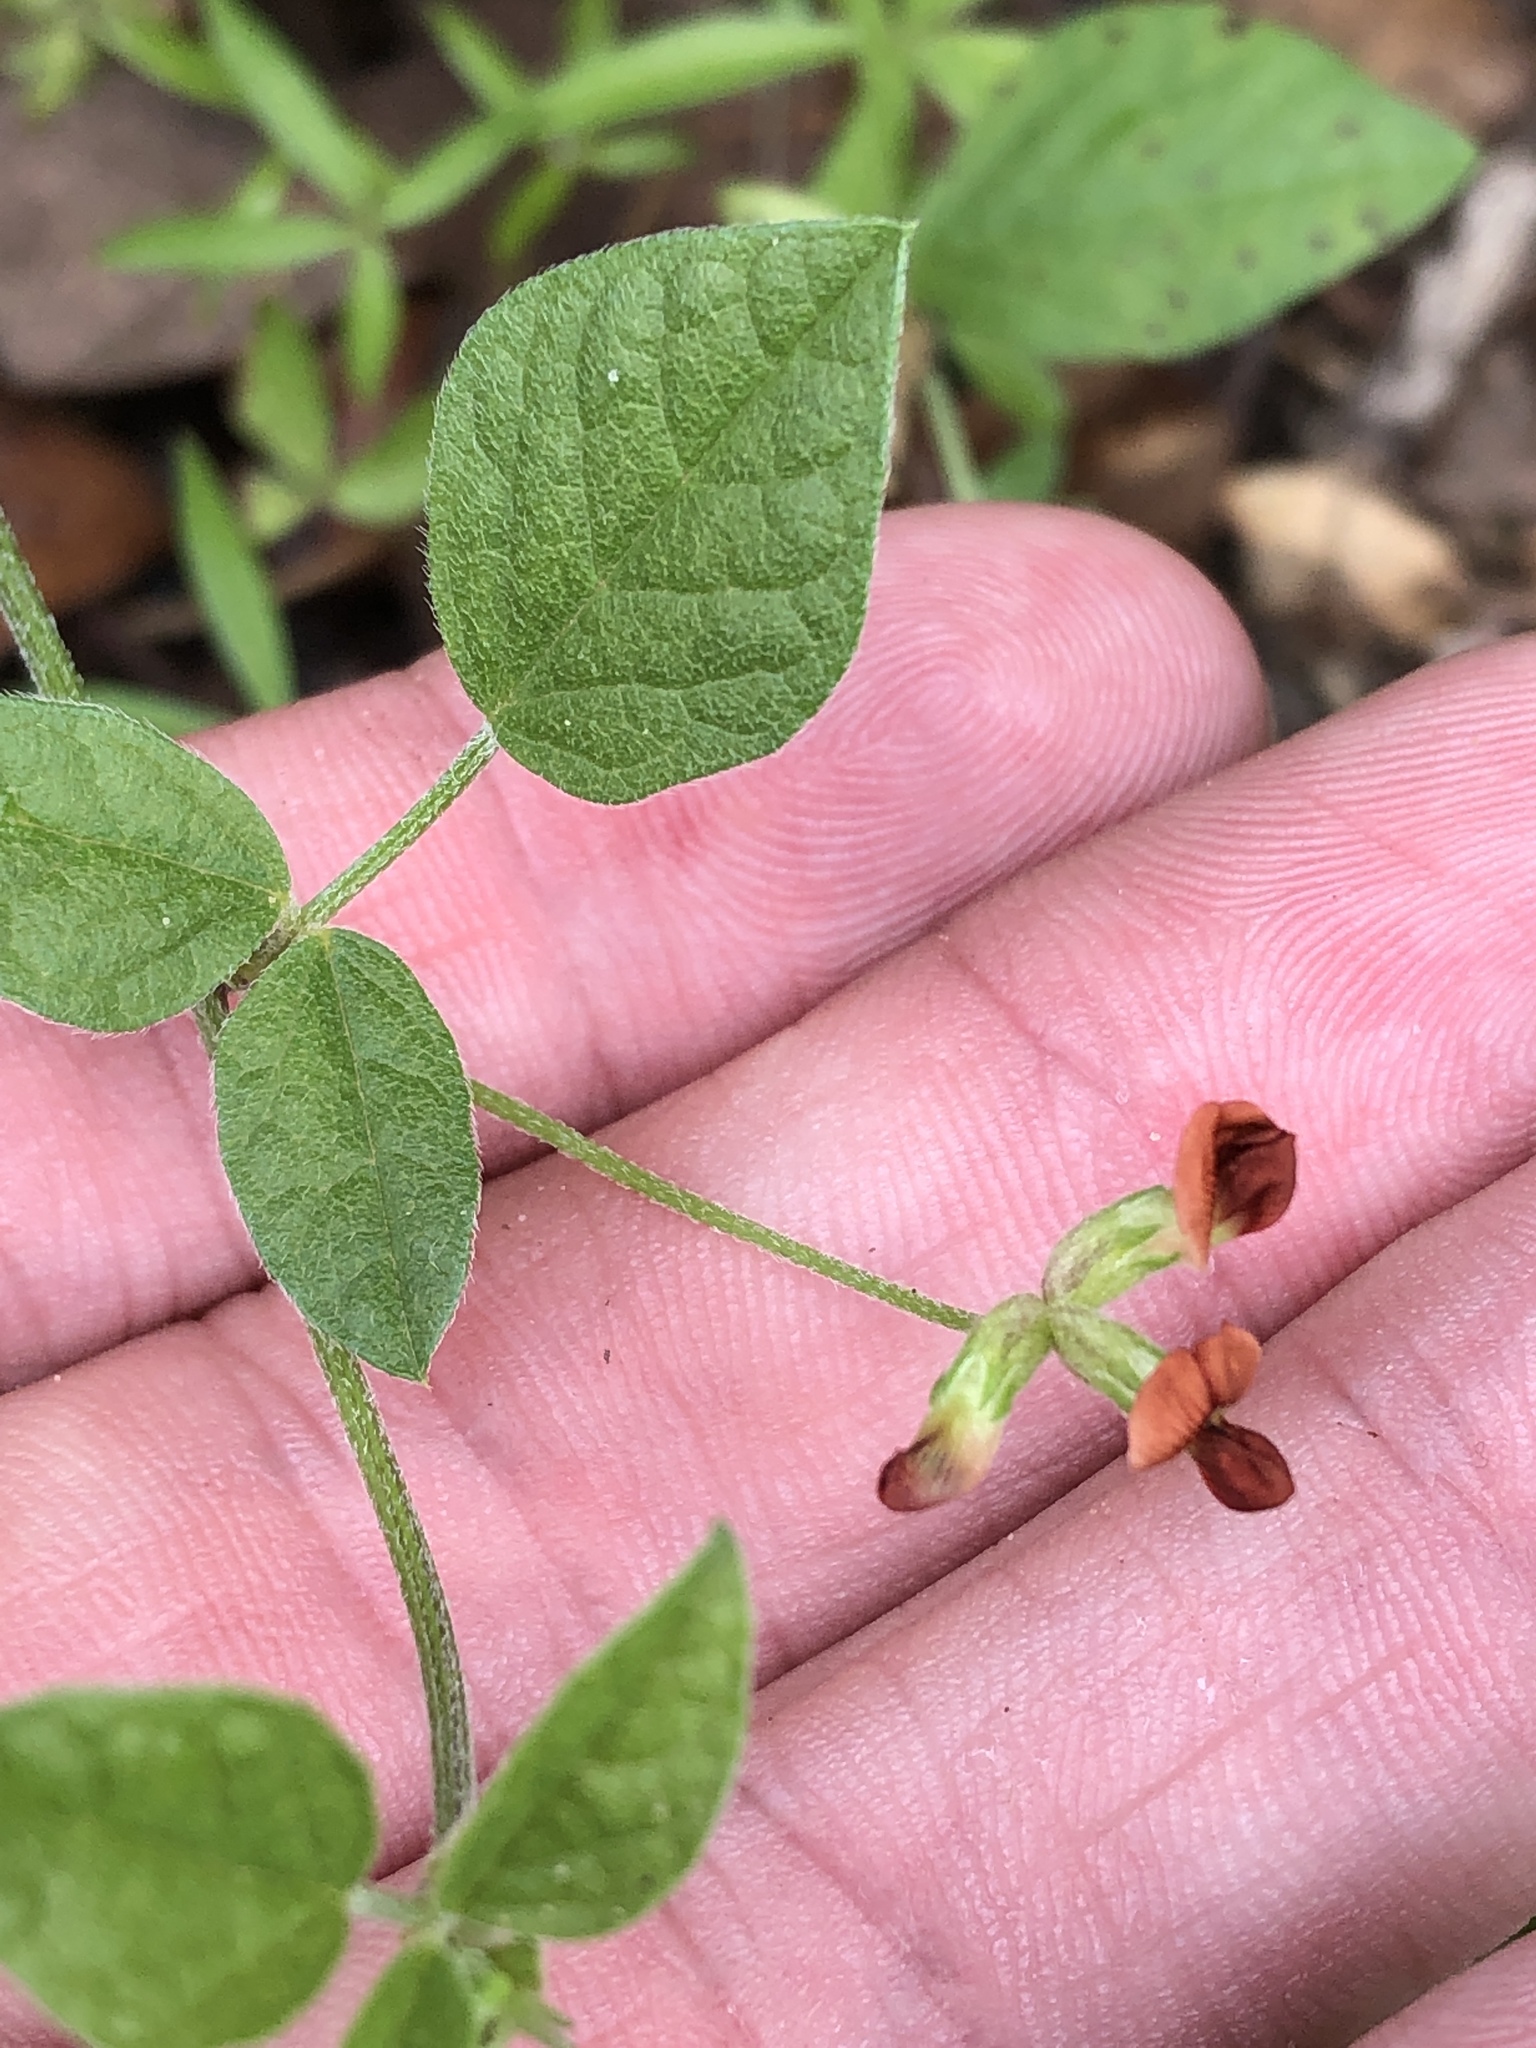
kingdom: Plantae
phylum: Tracheophyta
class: Magnoliopsida
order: Fabales
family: Fabaceae
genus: Pediomelum
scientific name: Pediomelum rhombifolium
